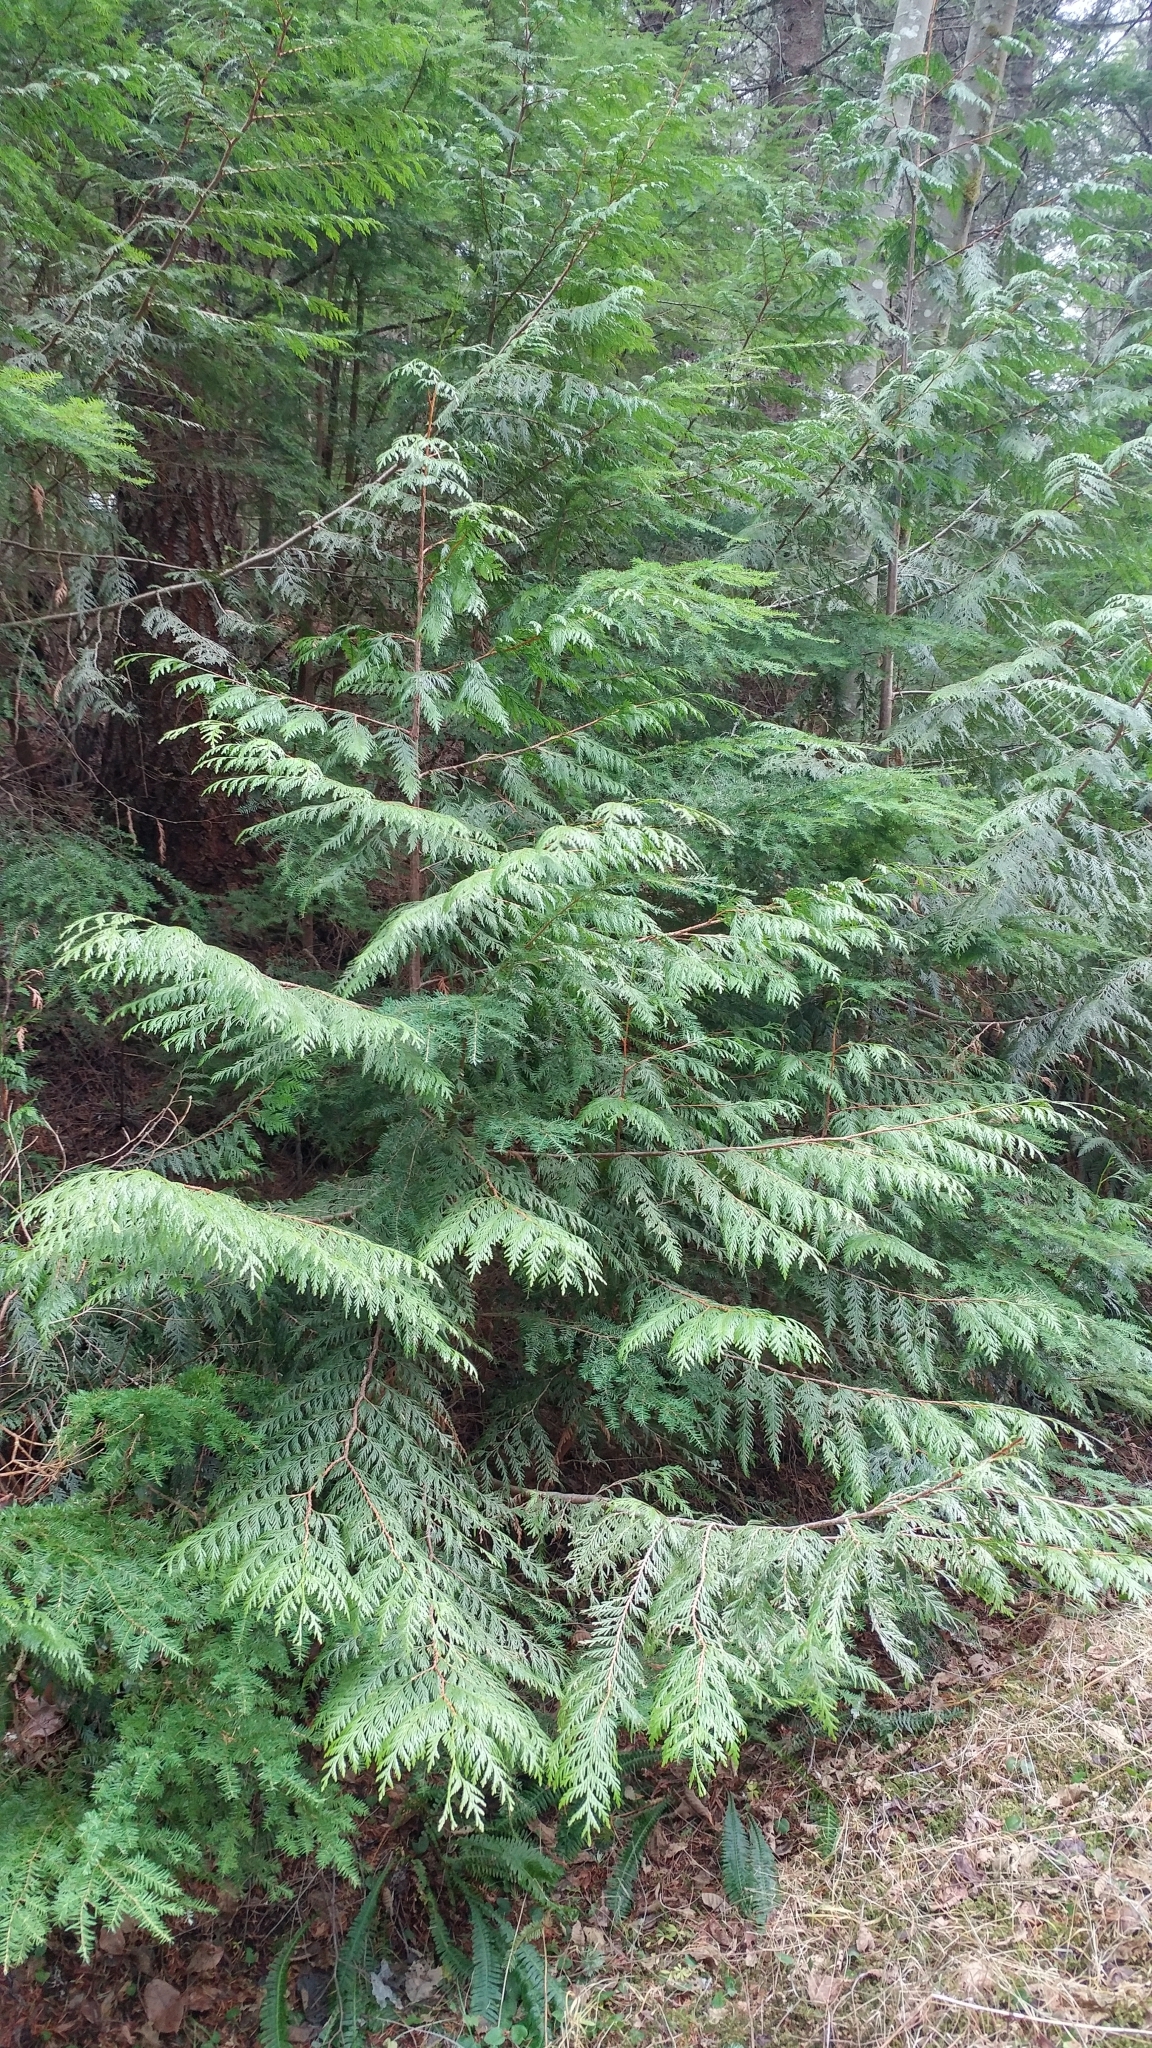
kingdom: Plantae
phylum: Tracheophyta
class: Pinopsida
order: Pinales
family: Cupressaceae
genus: Thuja
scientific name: Thuja plicata
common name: Western red-cedar
